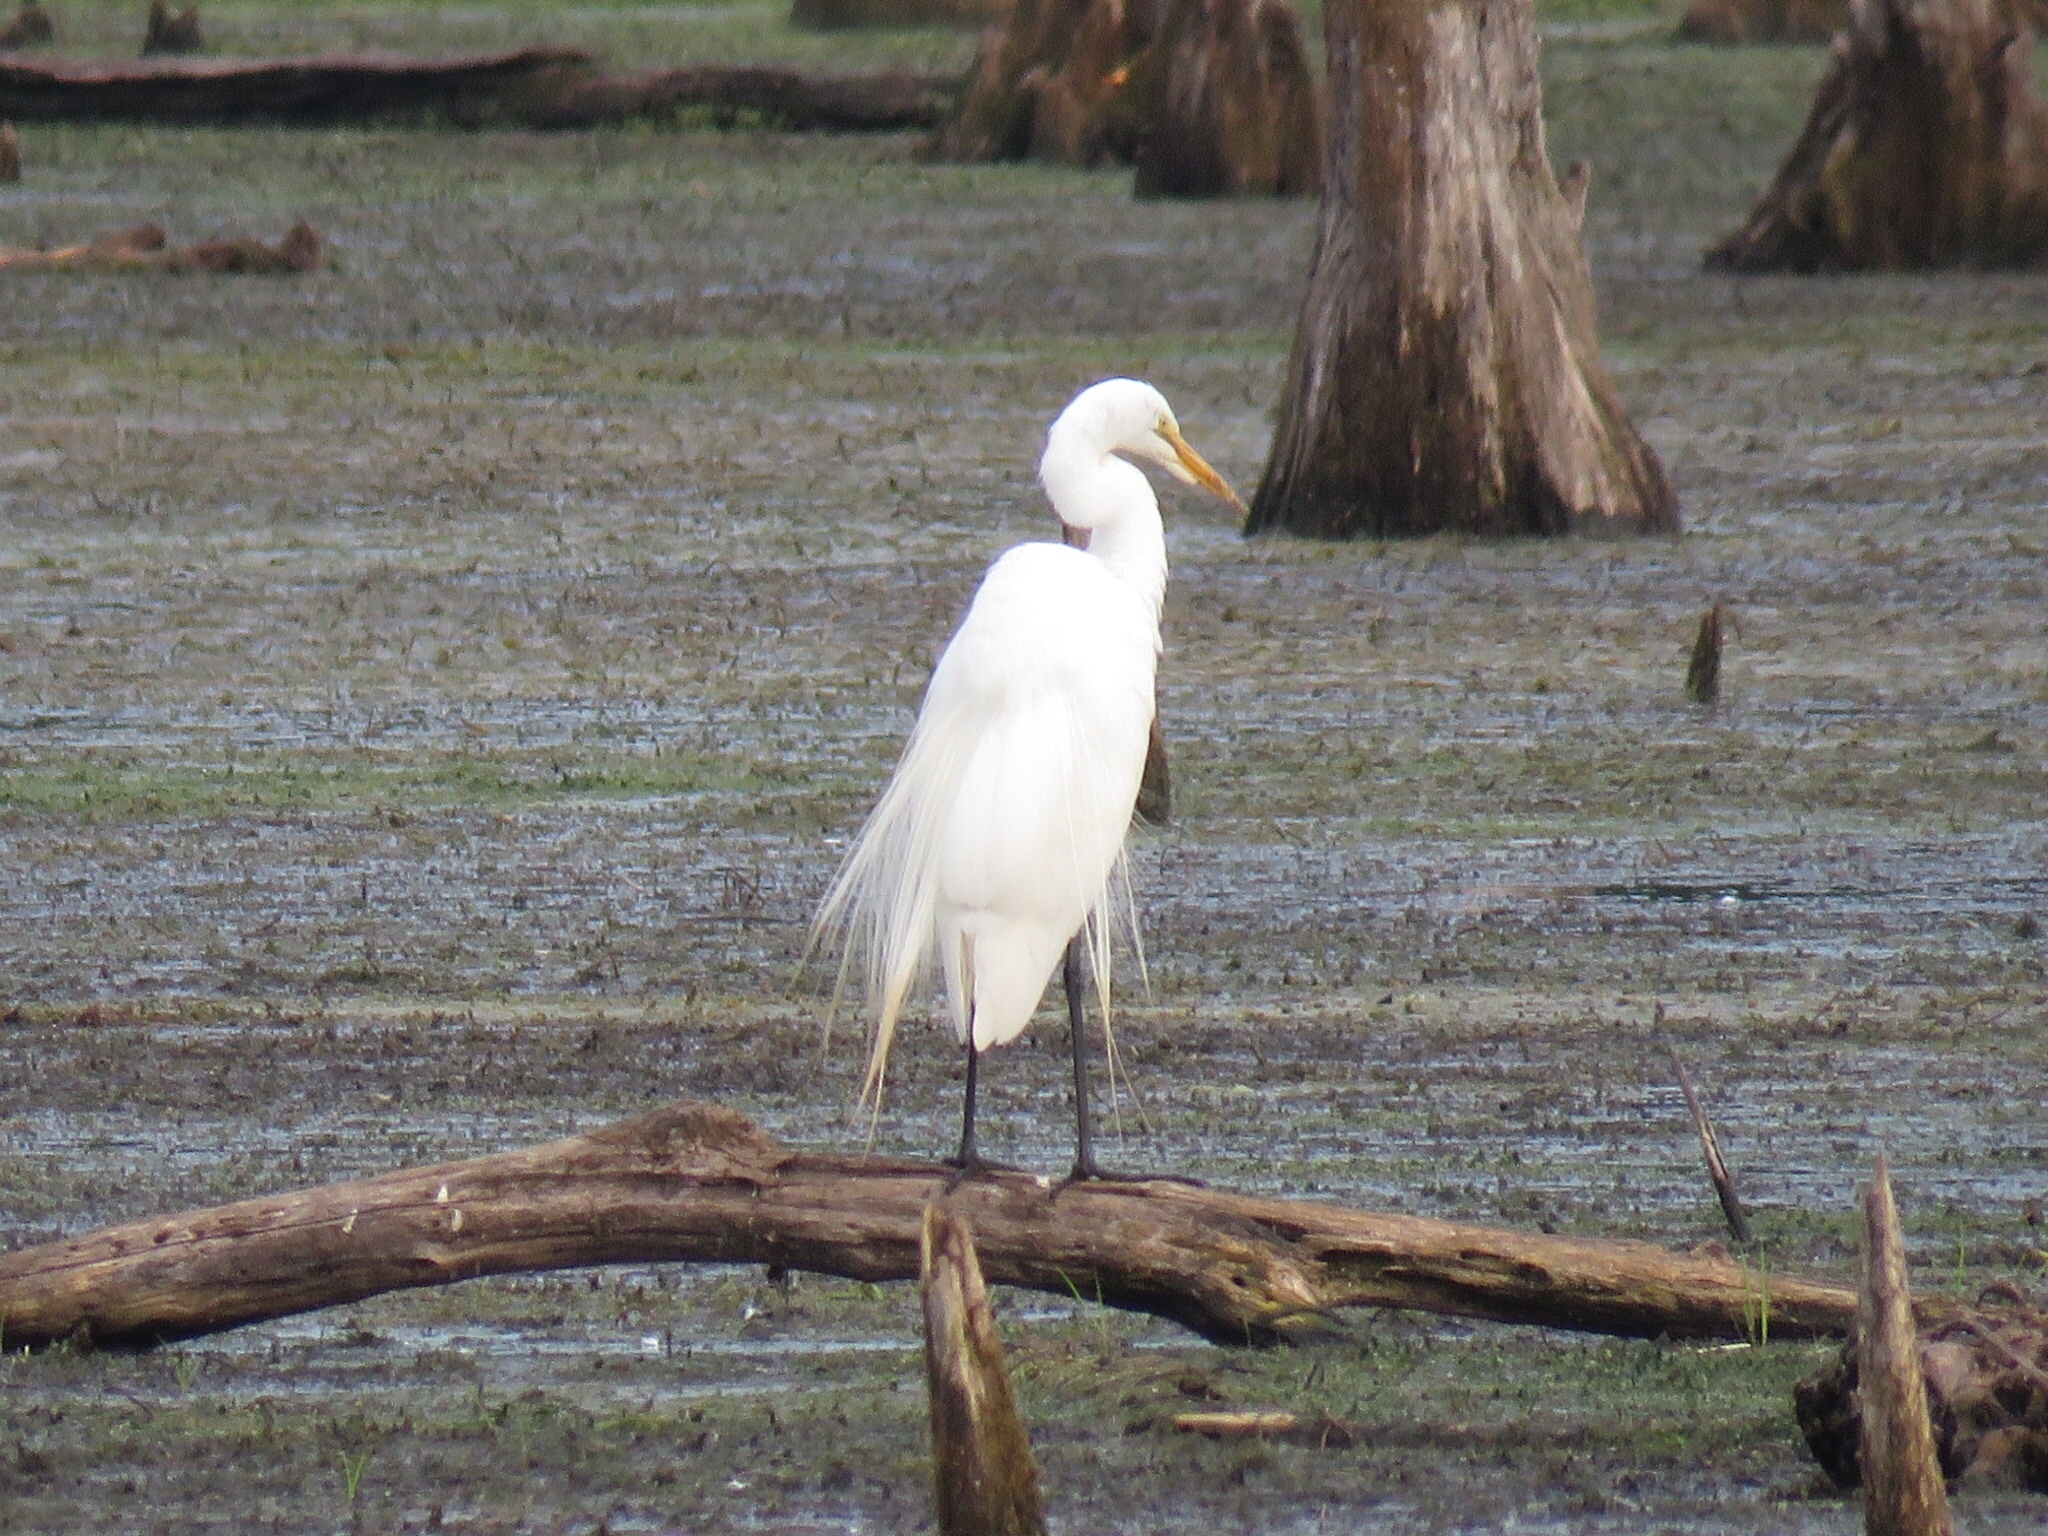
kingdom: Animalia
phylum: Chordata
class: Aves
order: Pelecaniformes
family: Ardeidae
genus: Ardea
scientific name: Ardea alba
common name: Great egret
